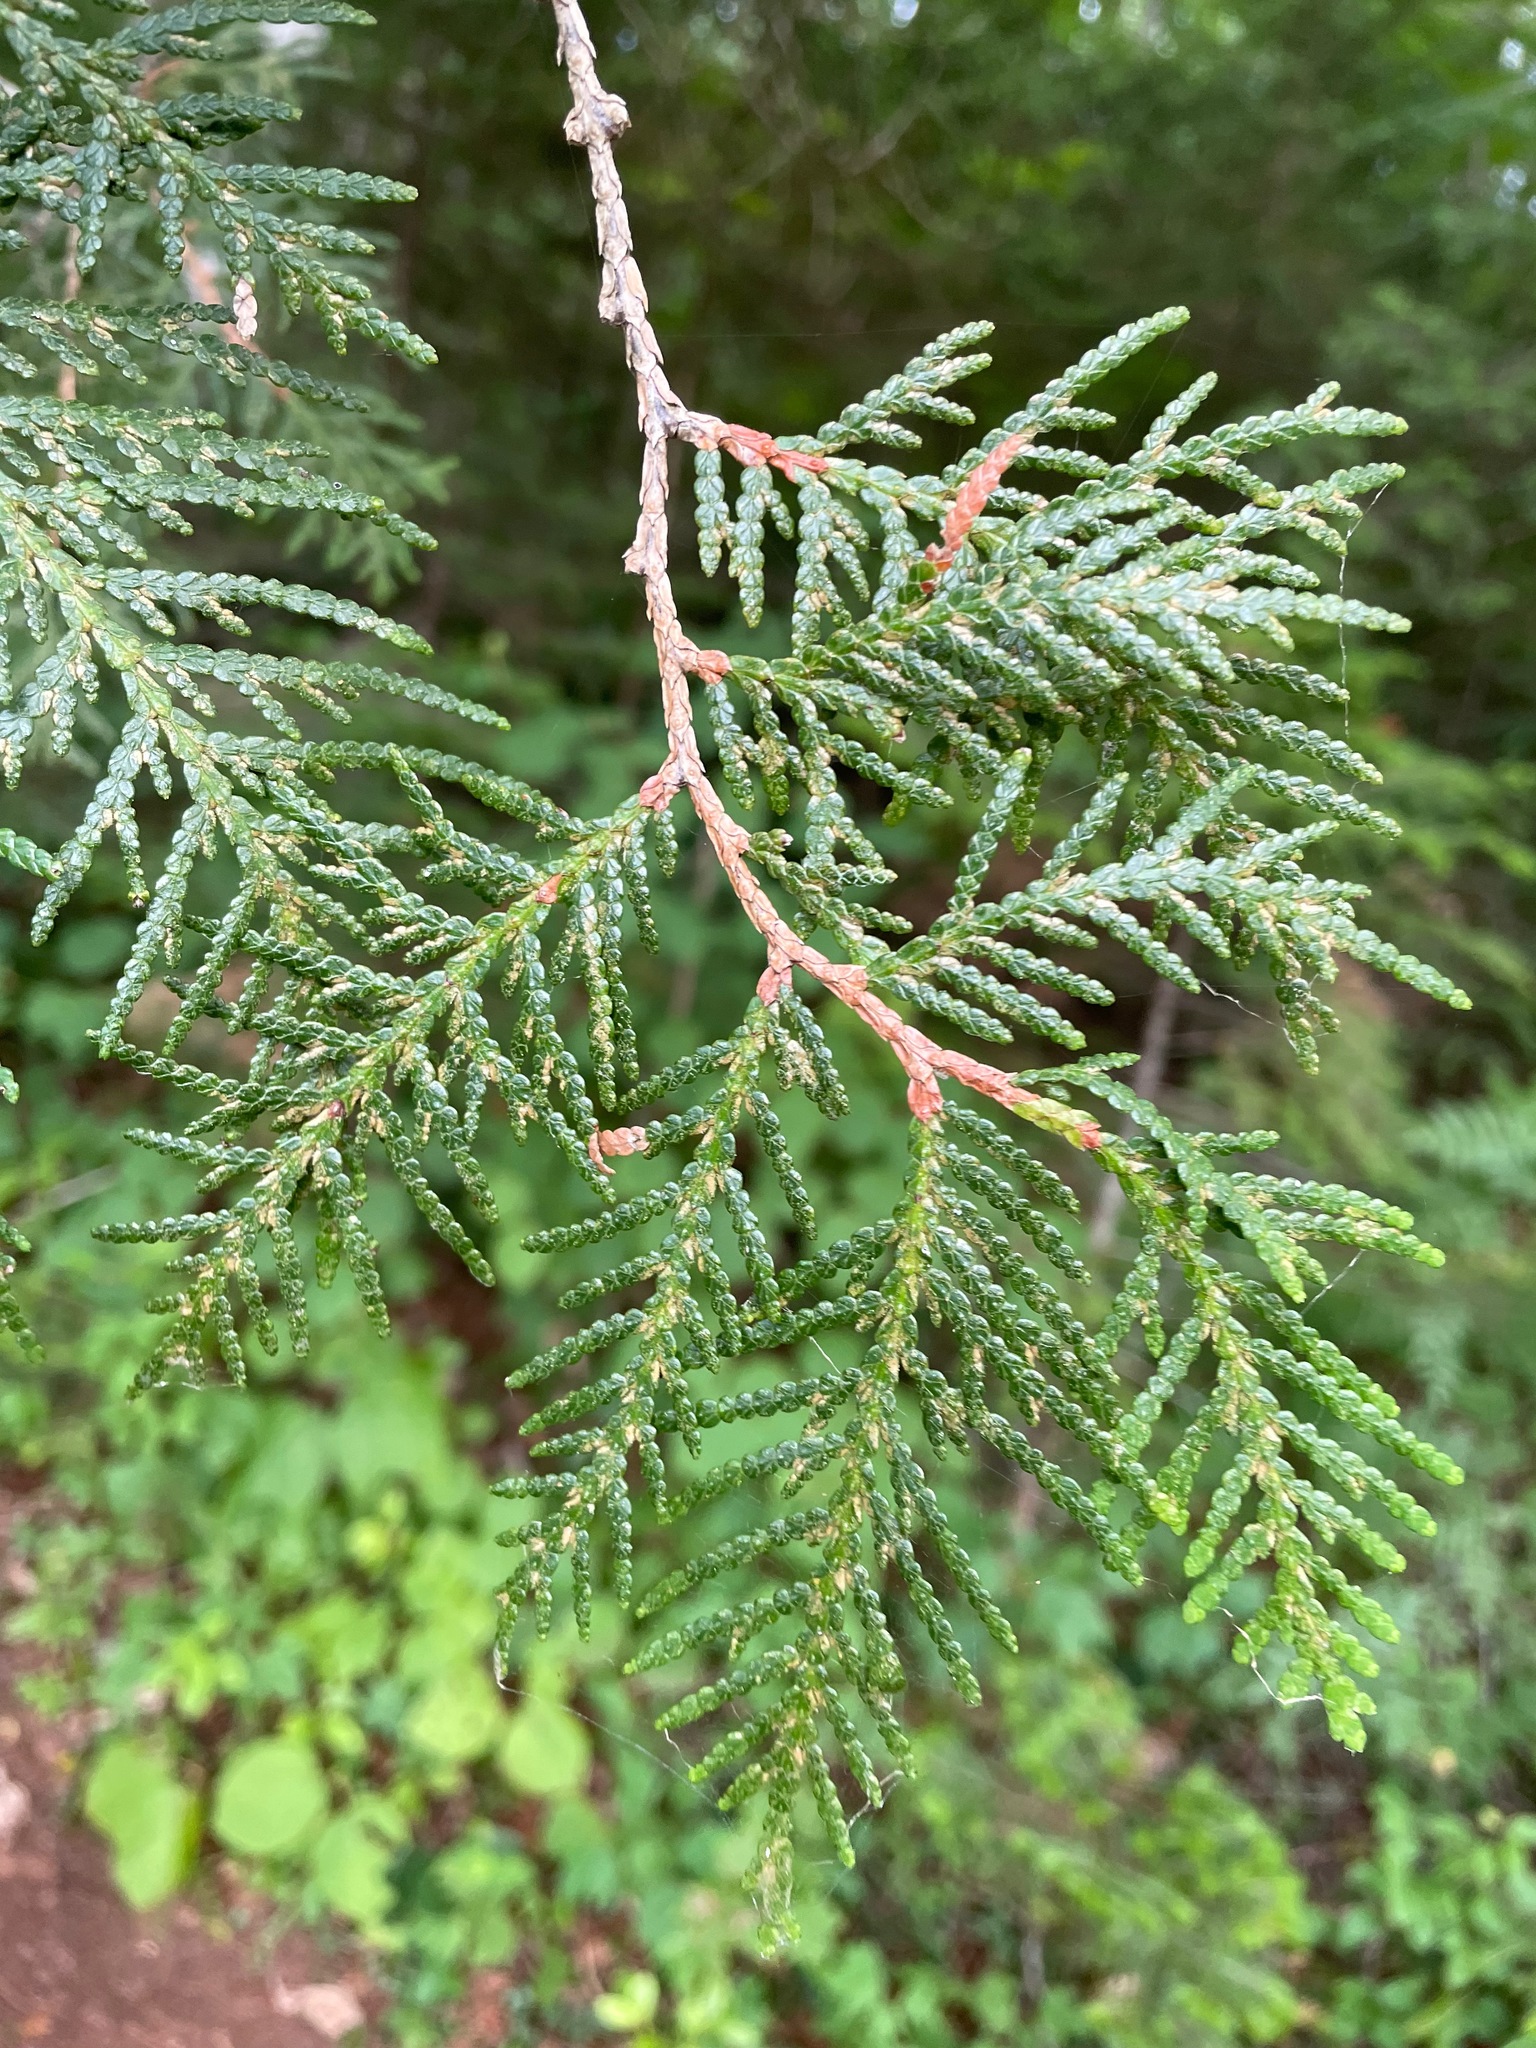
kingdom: Plantae
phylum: Tracheophyta
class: Pinopsida
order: Pinales
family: Cupressaceae
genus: Thuja
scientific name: Thuja occidentalis
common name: Northern white-cedar
